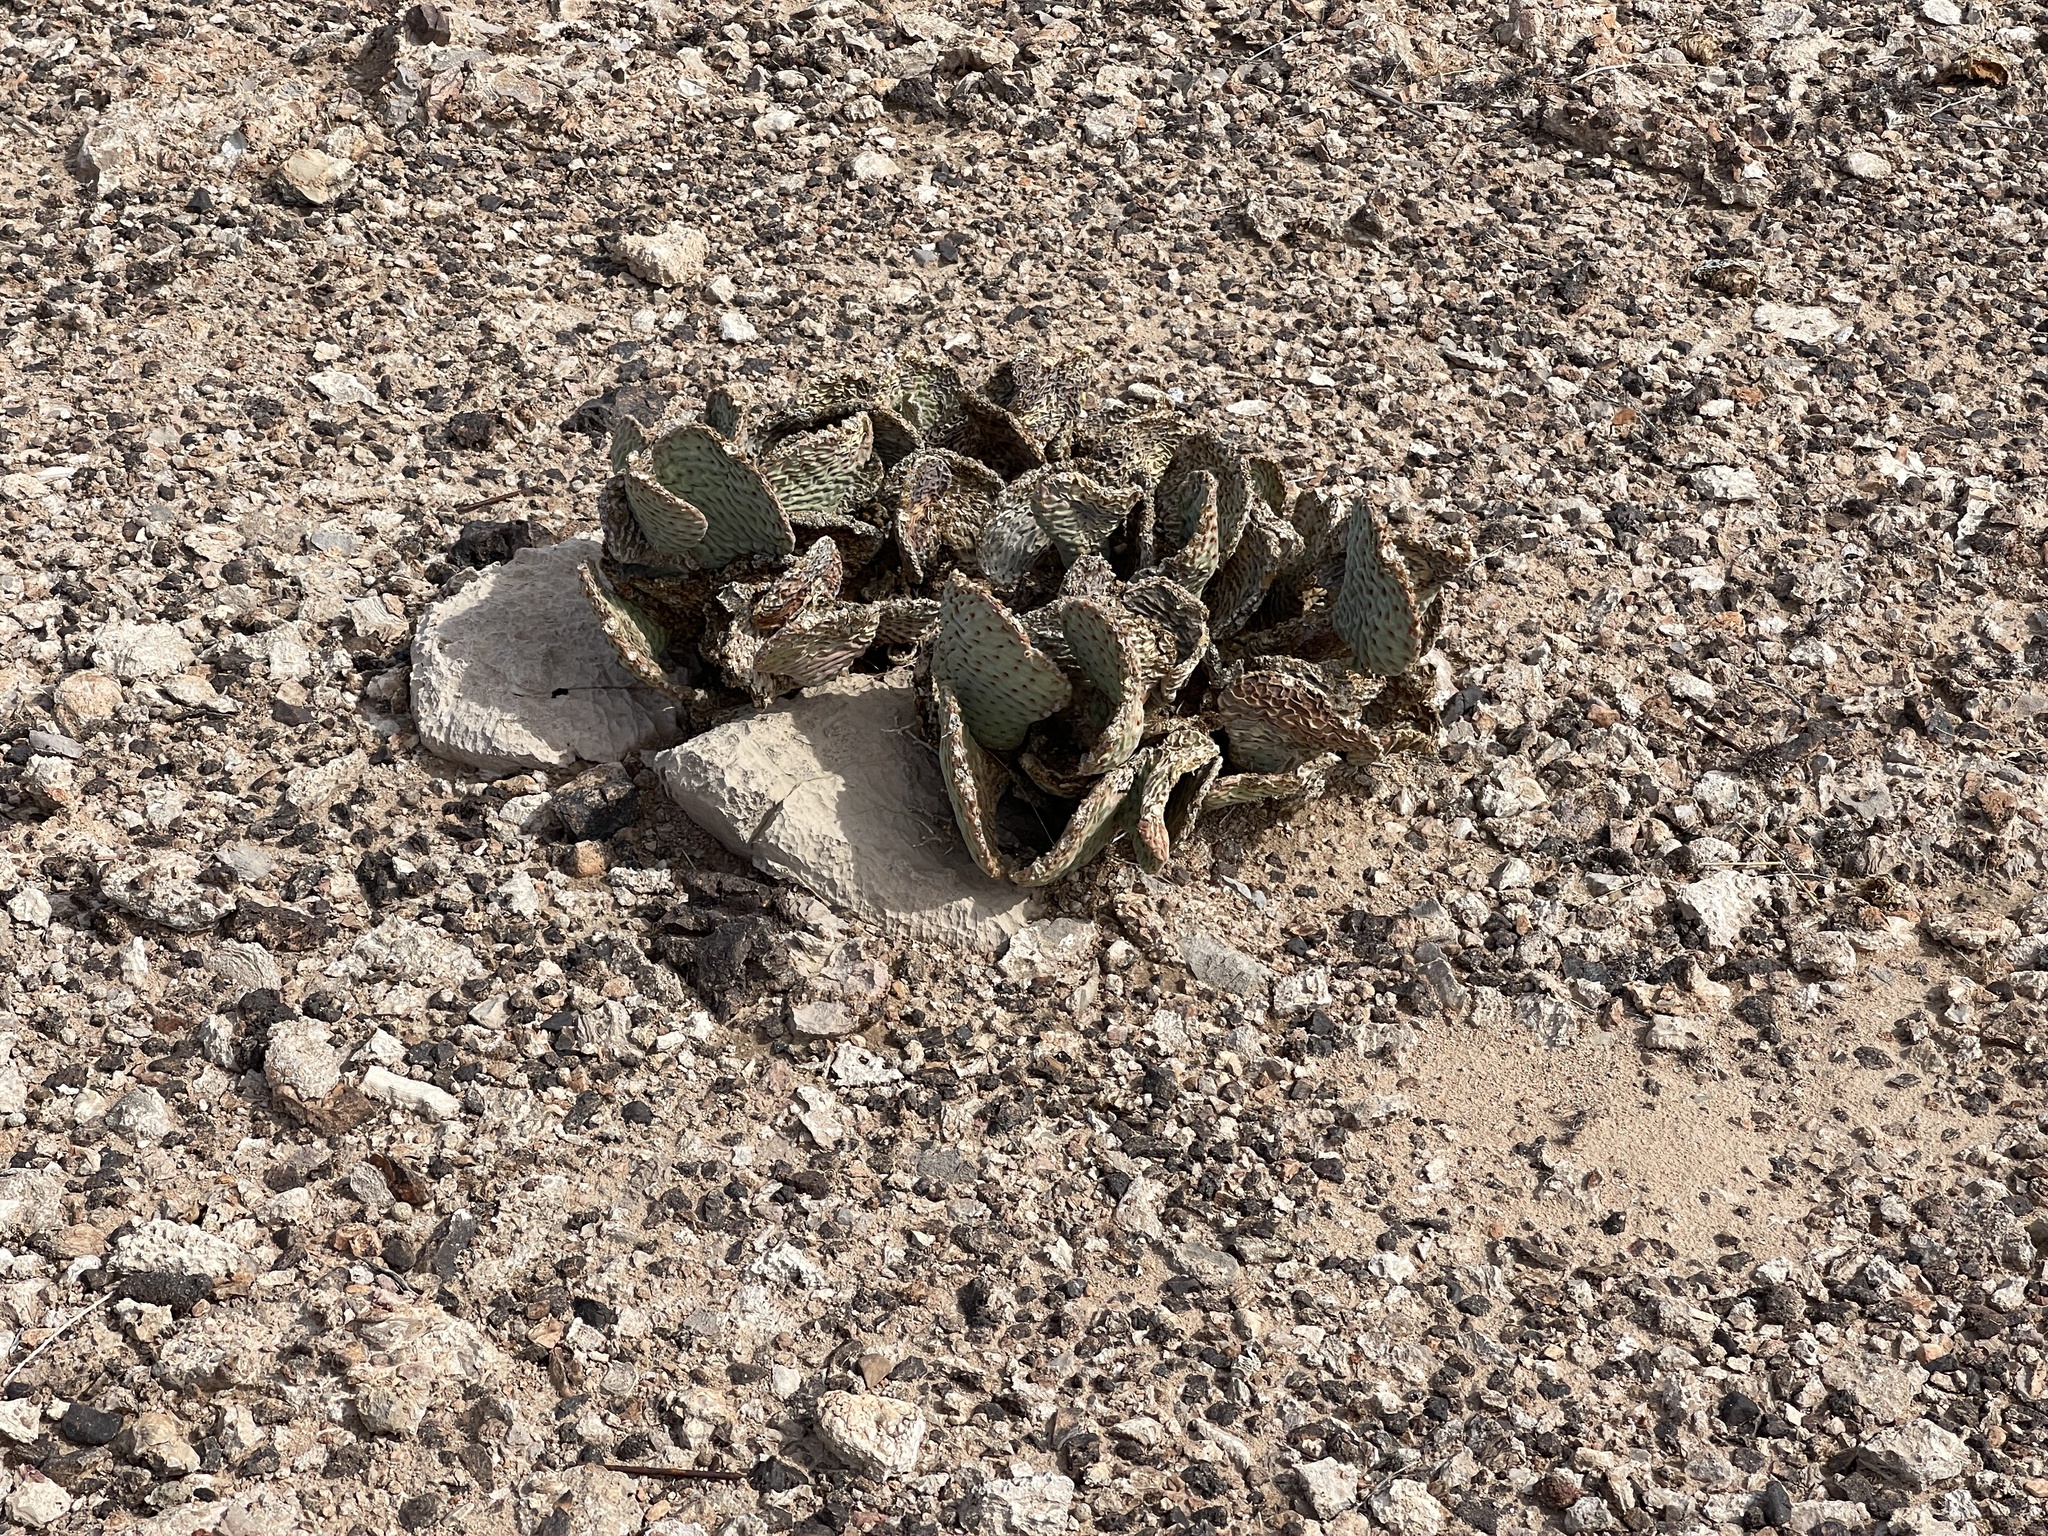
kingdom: Plantae
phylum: Tracheophyta
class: Magnoliopsida
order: Caryophyllales
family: Cactaceae
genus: Opuntia
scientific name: Opuntia basilaris
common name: Beavertail prickly-pear
